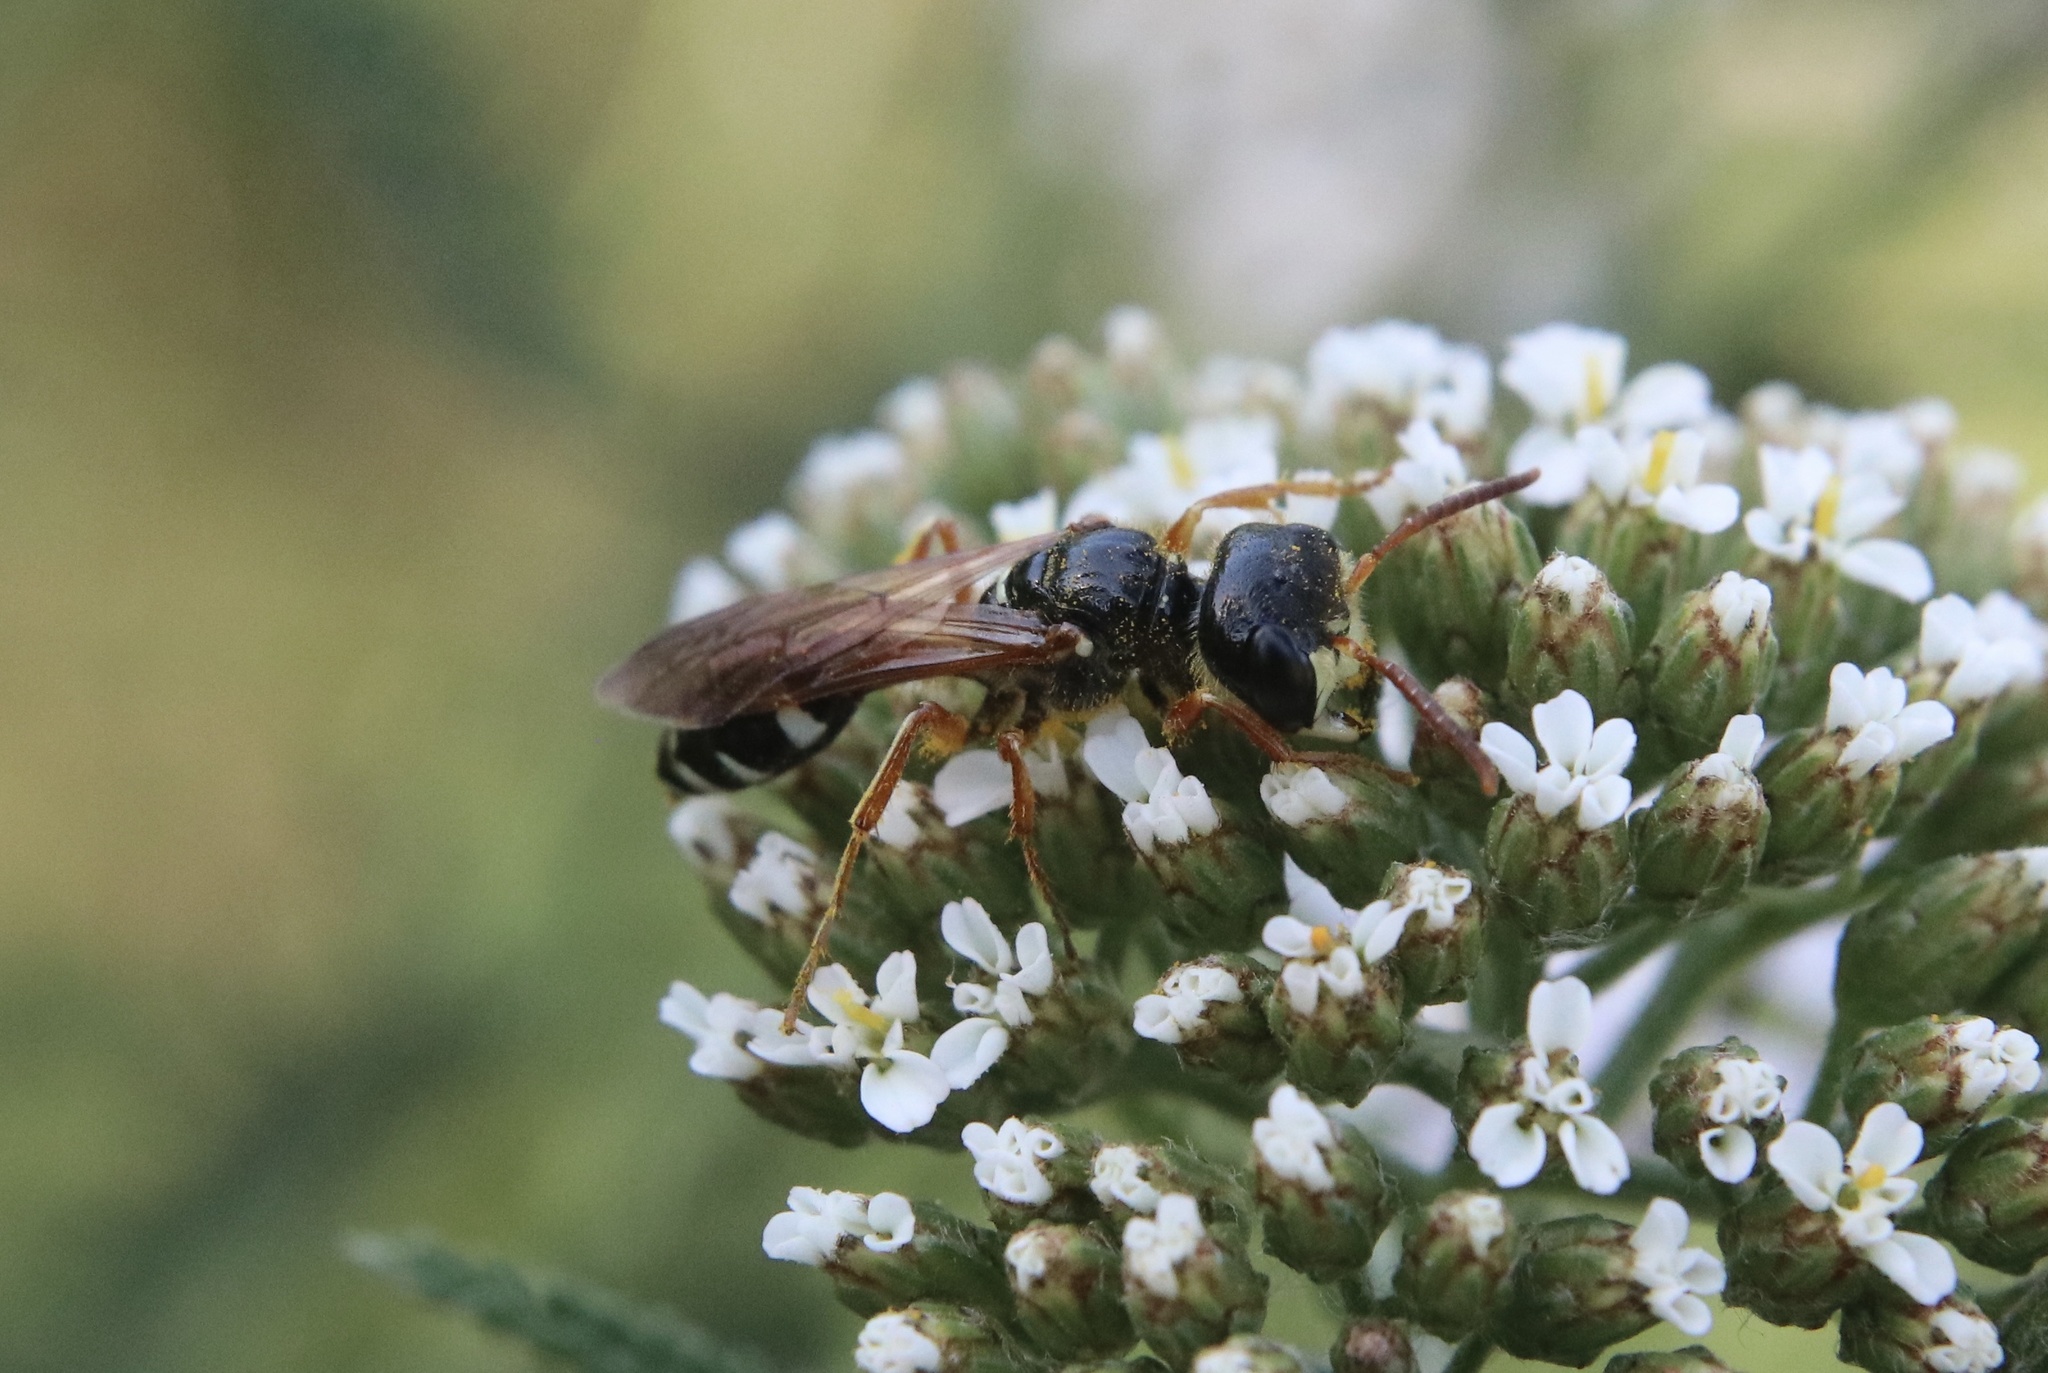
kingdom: Animalia
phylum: Arthropoda
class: Insecta
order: Hymenoptera
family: Crabronidae
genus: Trachypus
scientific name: Trachypus denticollis
